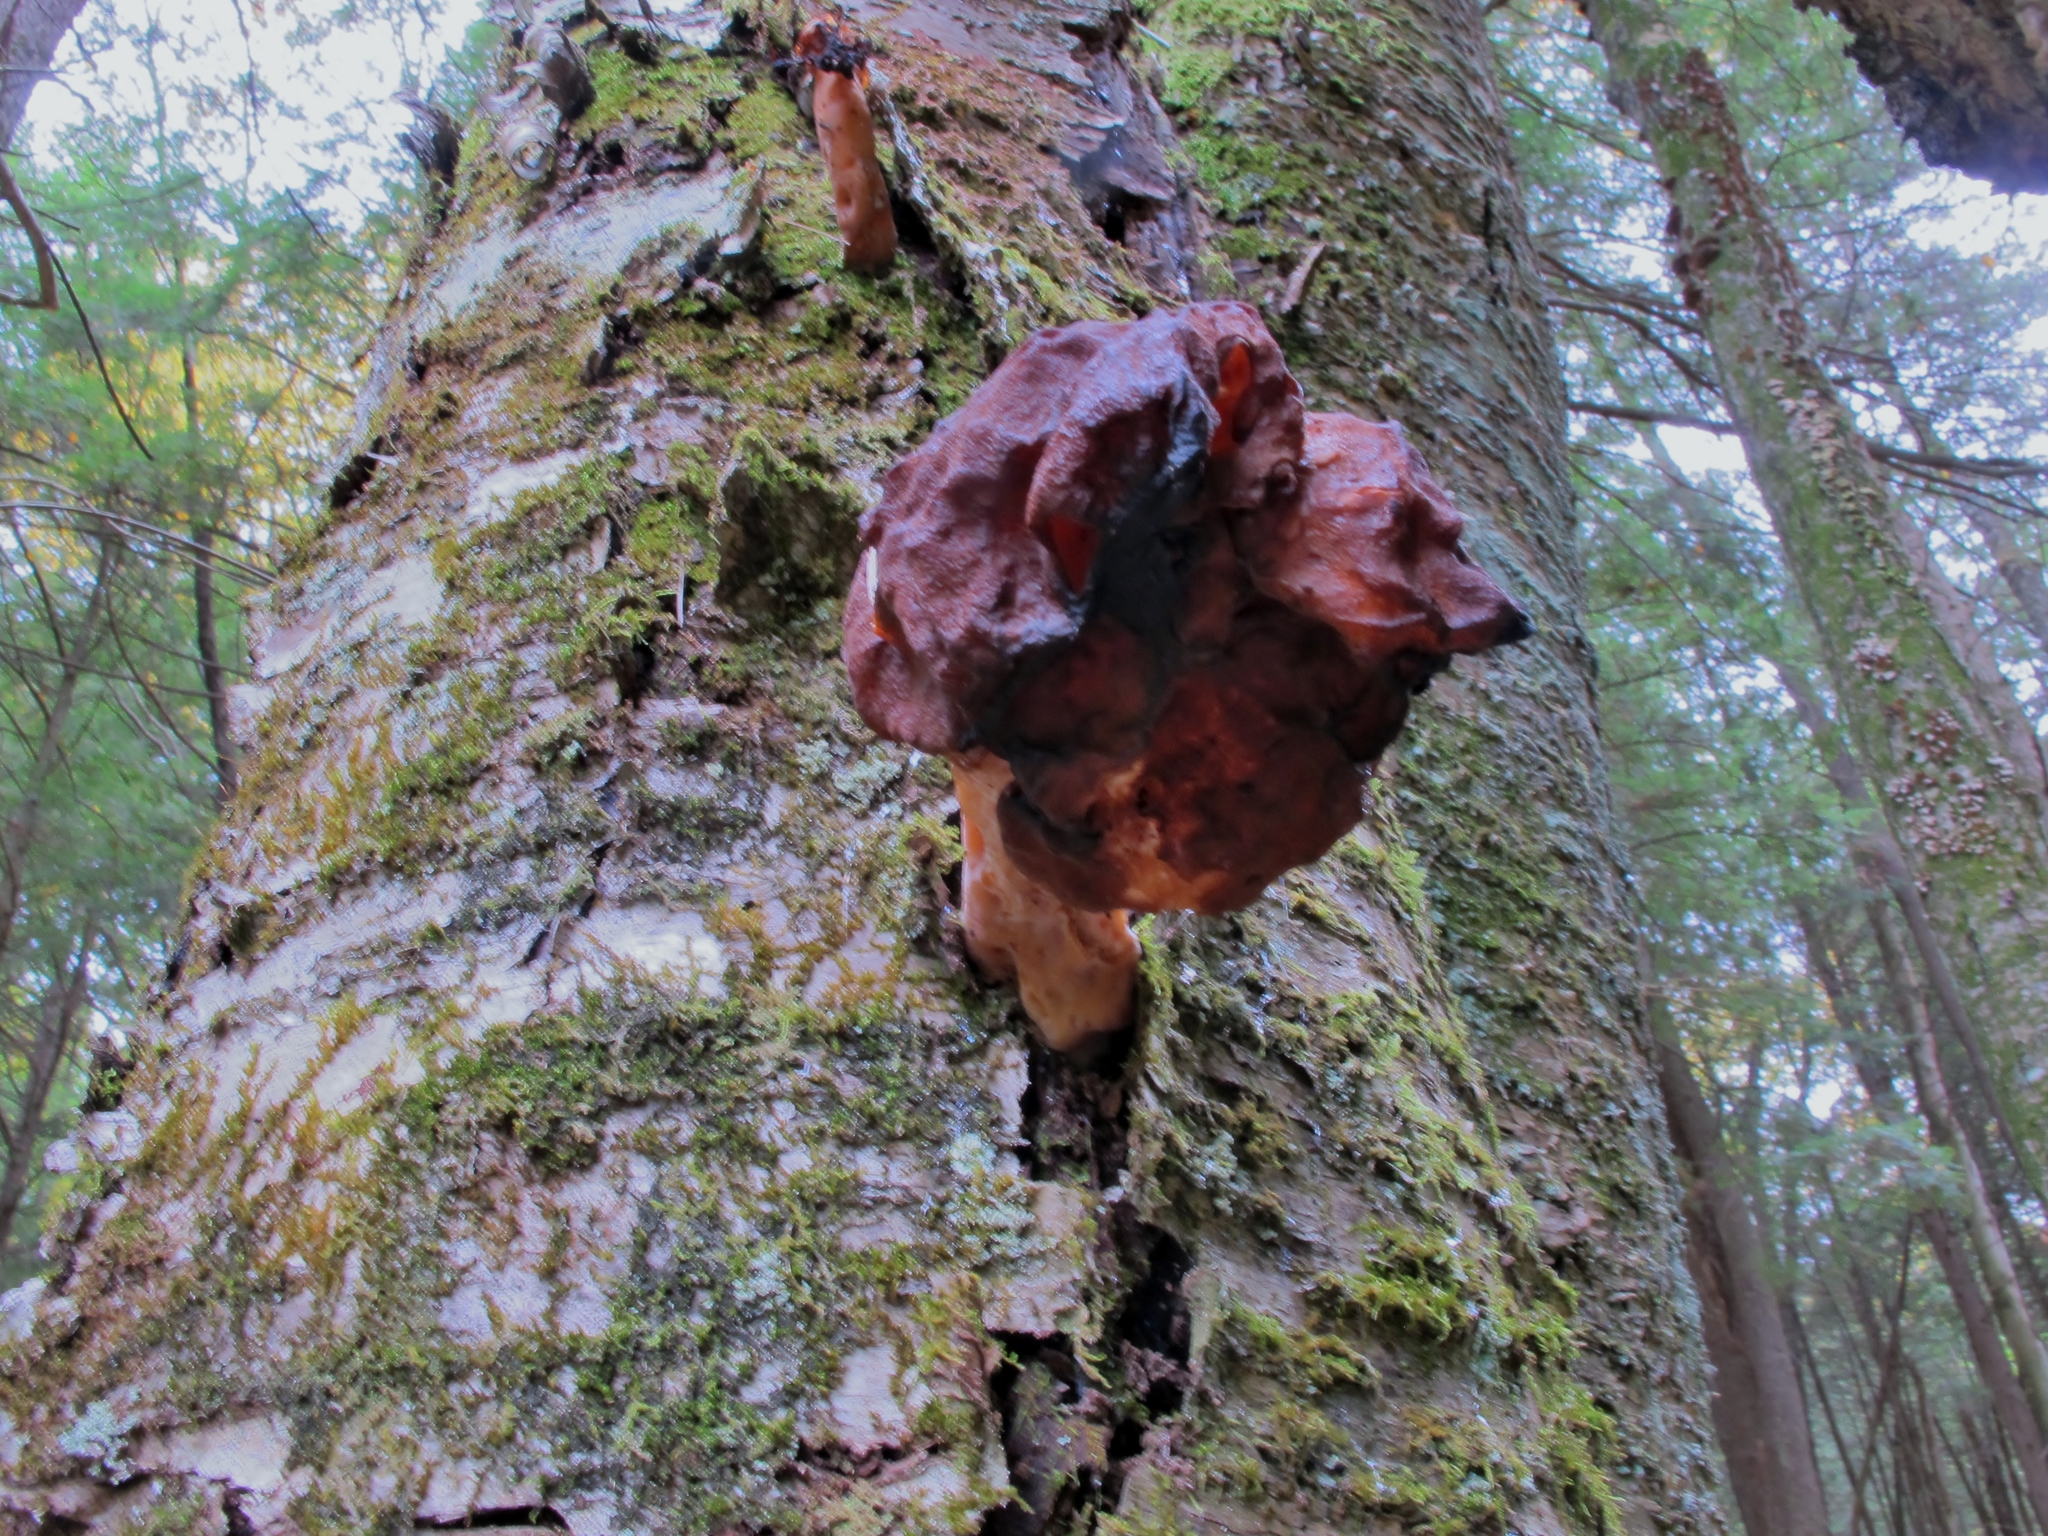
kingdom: Fungi
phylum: Ascomycota
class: Pezizomycetes
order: Pezizales
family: Discinaceae
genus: Gyromitra
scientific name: Gyromitra infula
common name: Pouched false morel
